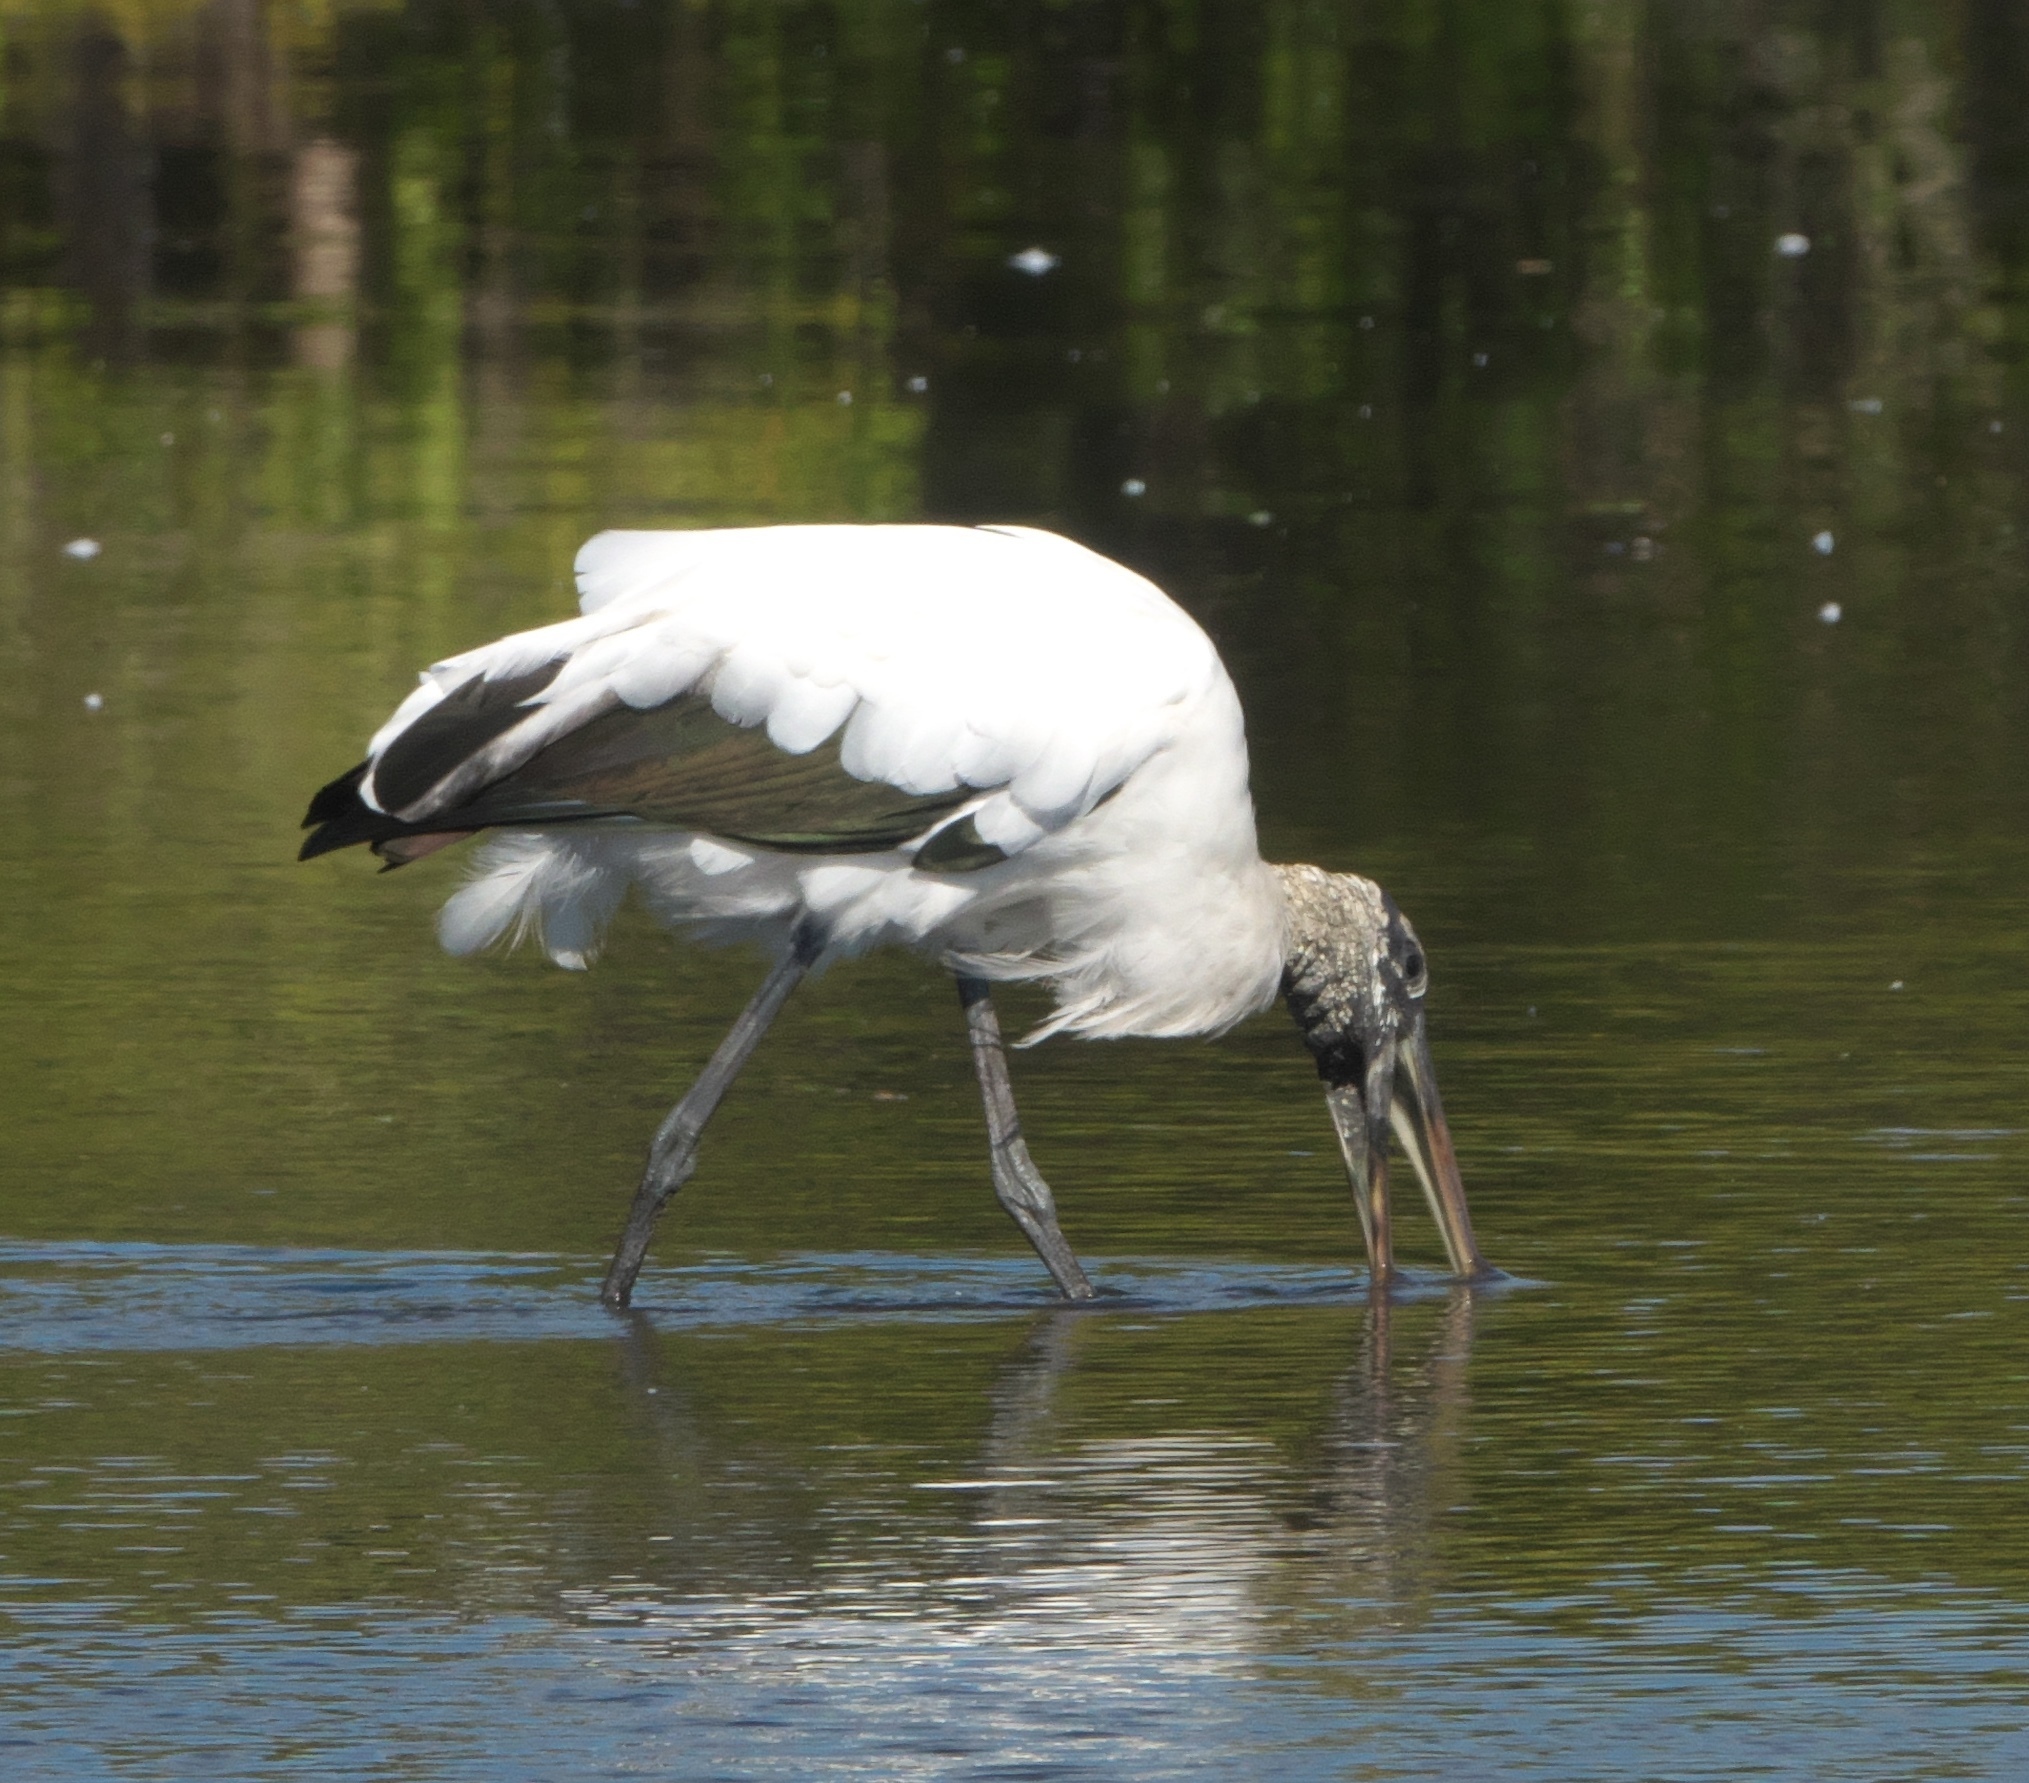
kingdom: Animalia
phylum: Chordata
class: Aves
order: Ciconiiformes
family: Ciconiidae
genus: Mycteria
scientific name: Mycteria americana
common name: Wood stork
